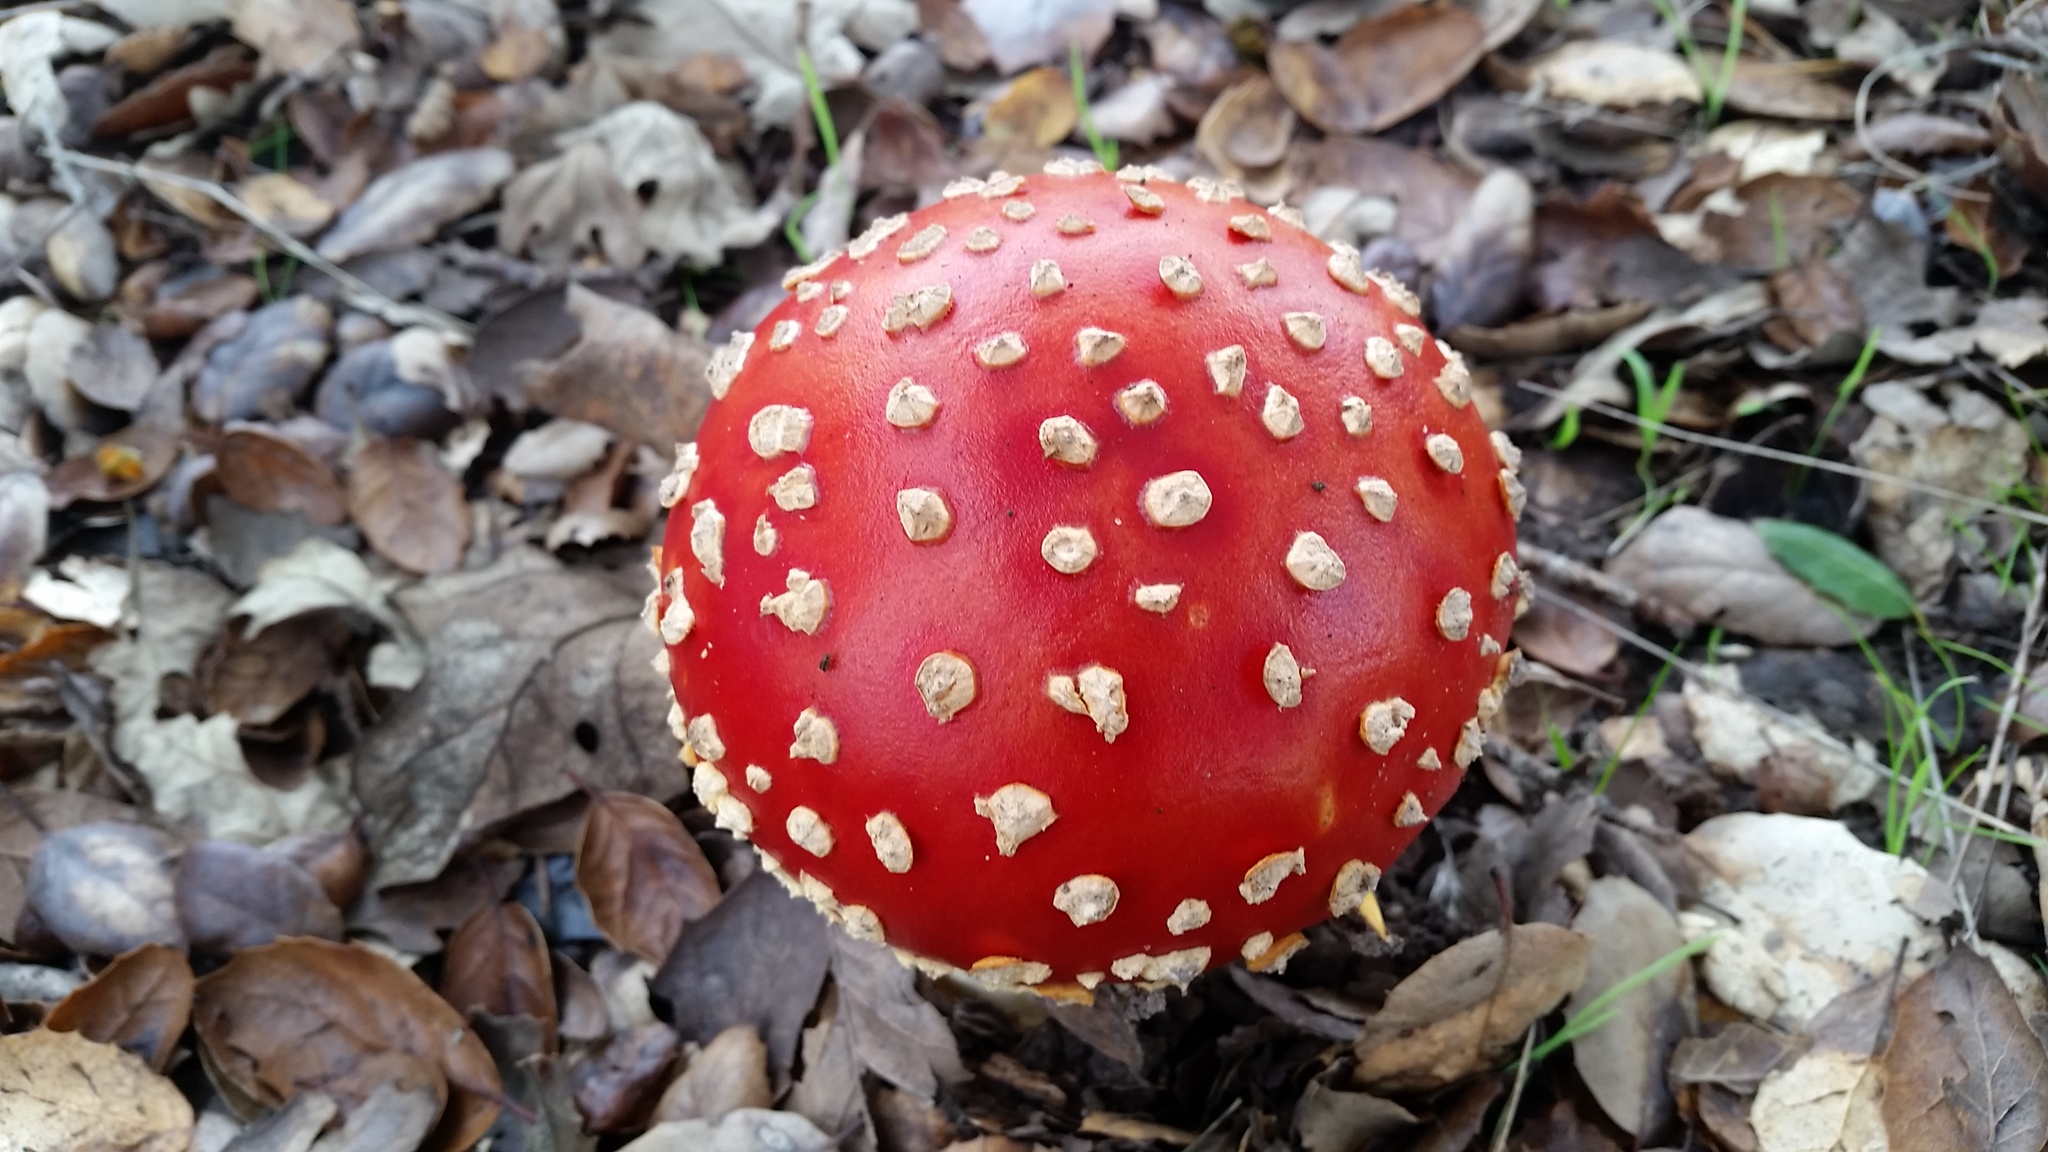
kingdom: Fungi
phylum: Basidiomycota
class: Agaricomycetes
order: Agaricales
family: Amanitaceae
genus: Amanita
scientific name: Amanita muscaria
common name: Fly agaric
